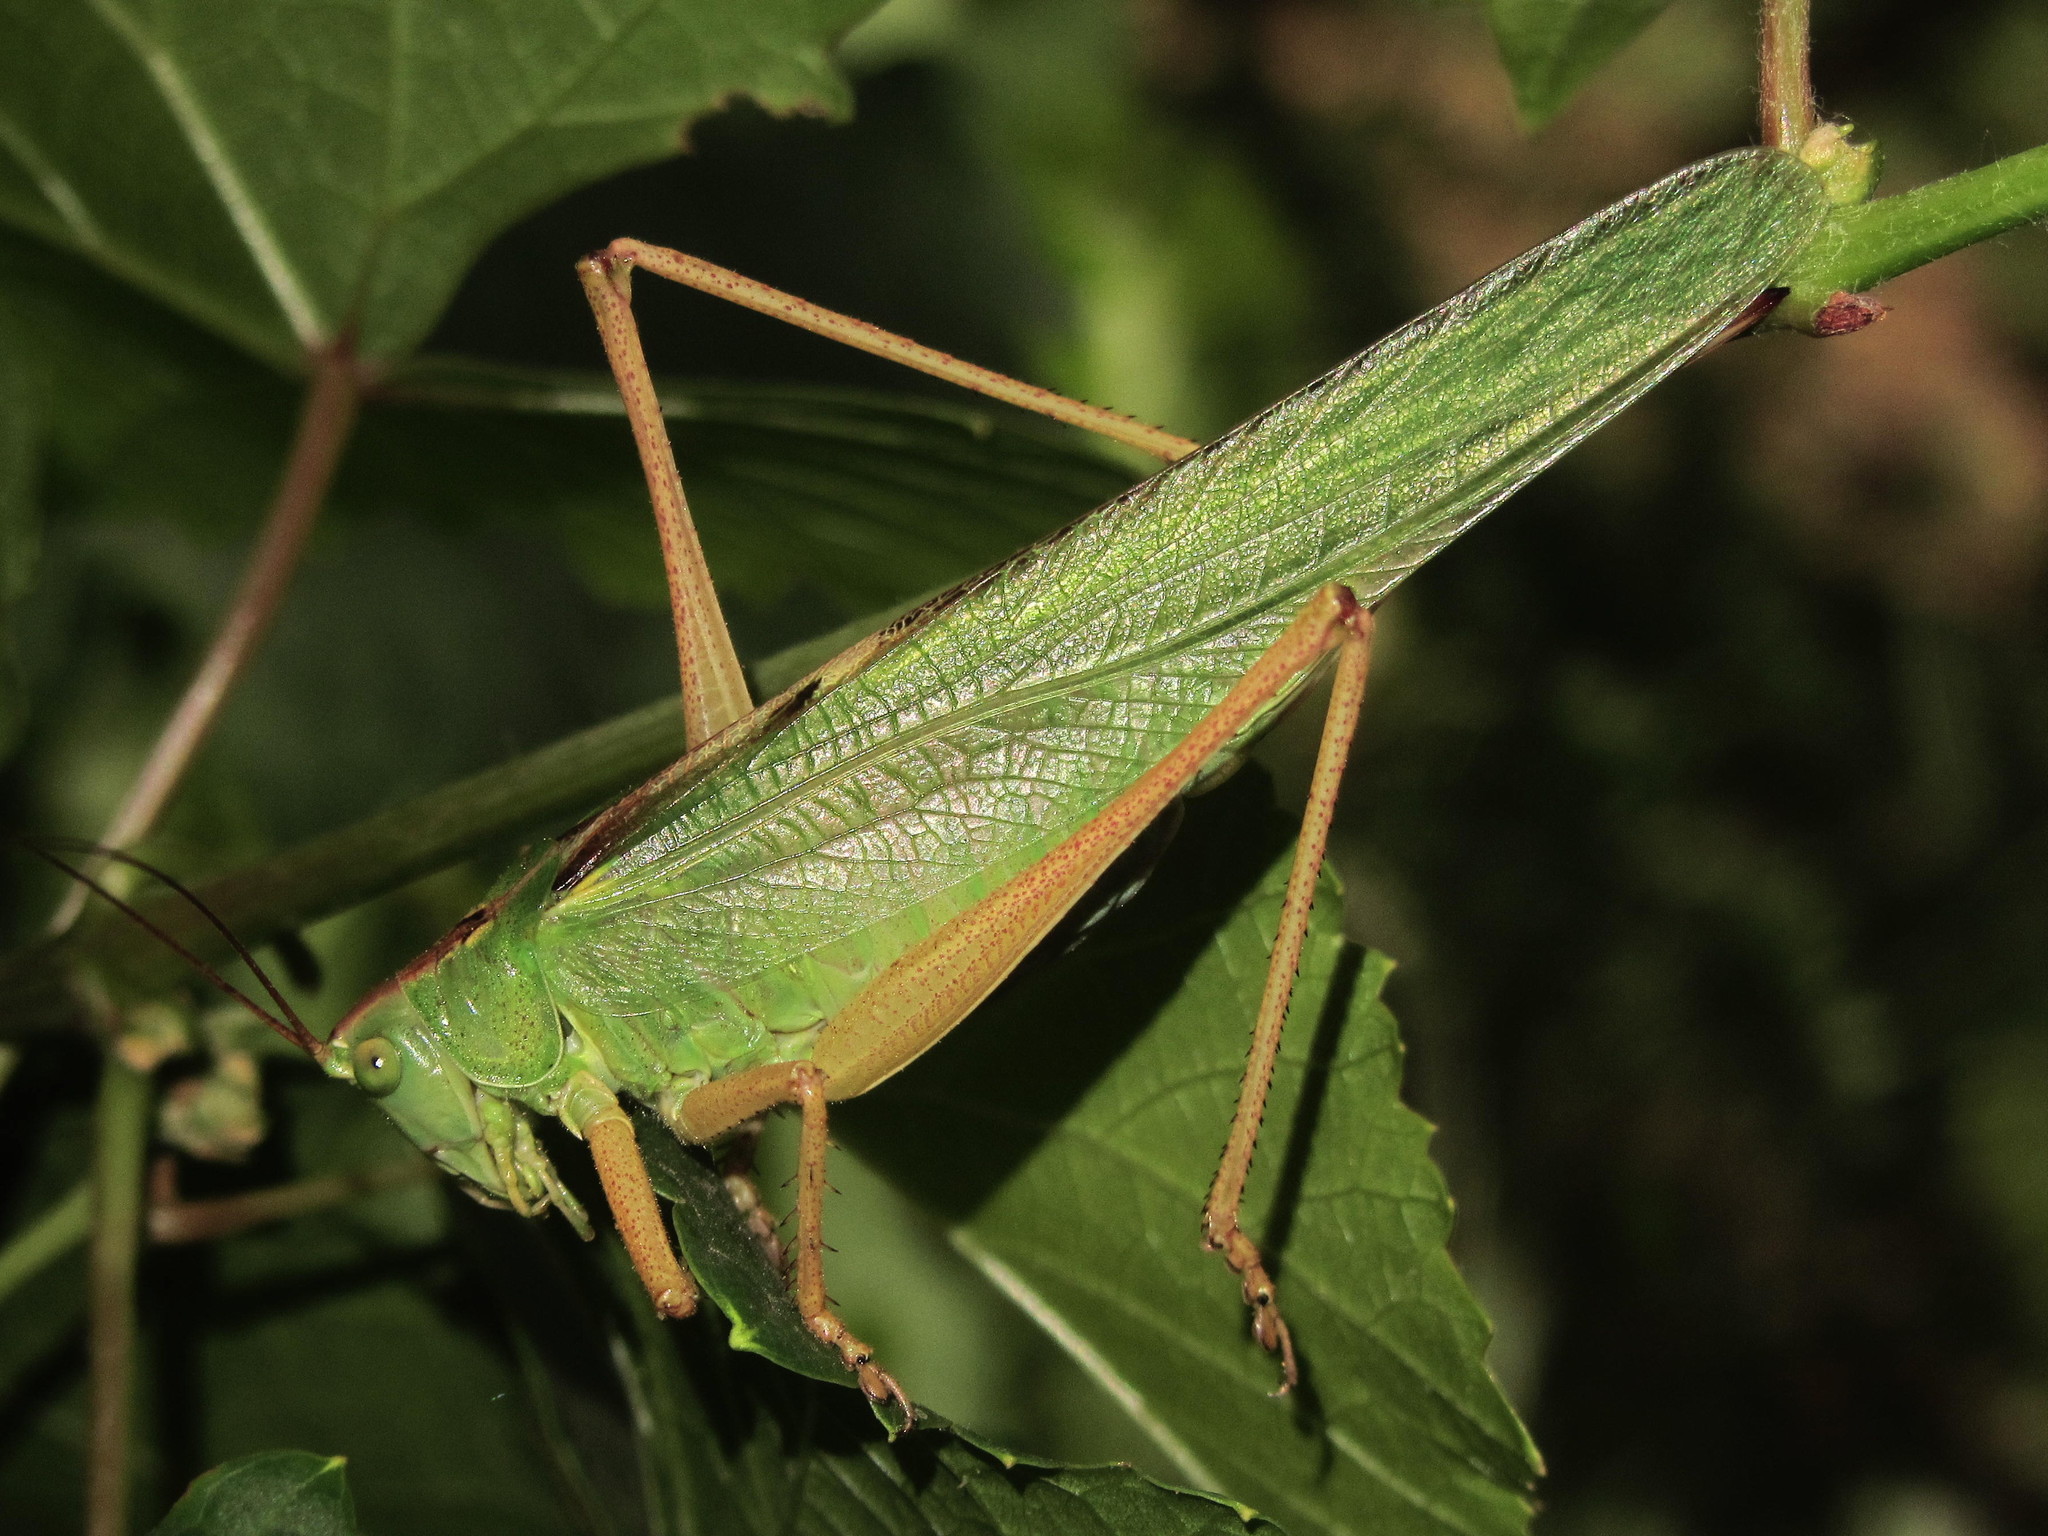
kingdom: Animalia
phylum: Arthropoda
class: Insecta
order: Orthoptera
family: Tettigoniidae
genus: Tettigonia
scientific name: Tettigonia viridissima
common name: Great green bush-cricket
